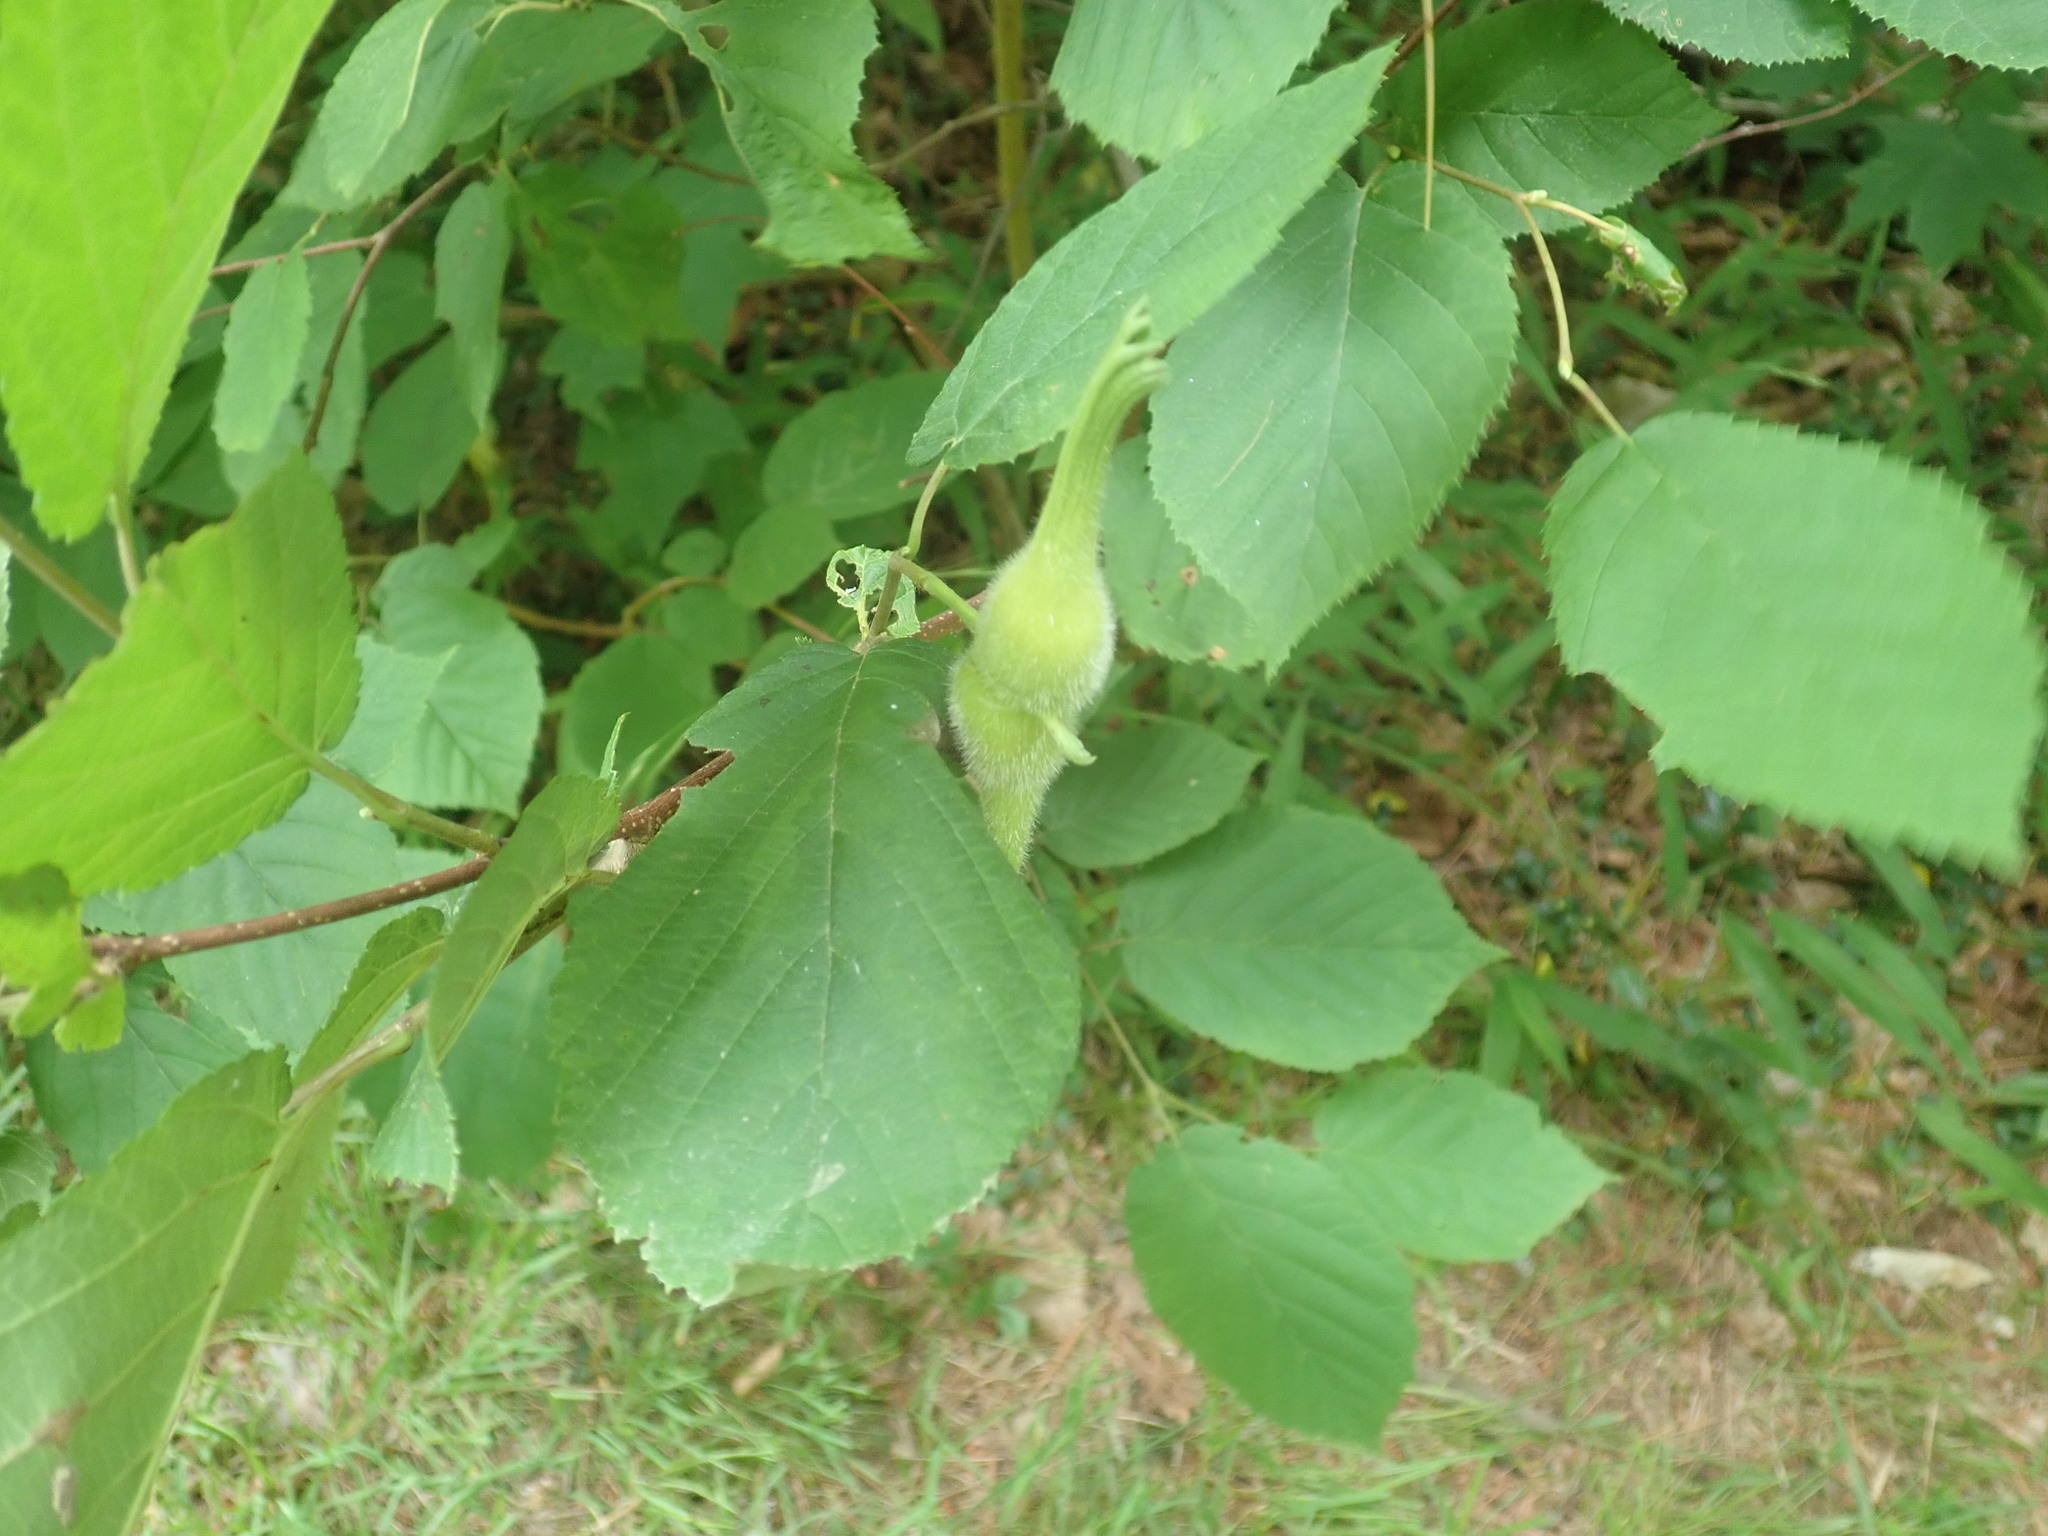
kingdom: Plantae
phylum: Tracheophyta
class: Magnoliopsida
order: Fagales
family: Betulaceae
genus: Corylus
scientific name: Corylus cornuta
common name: Beaked hazel
